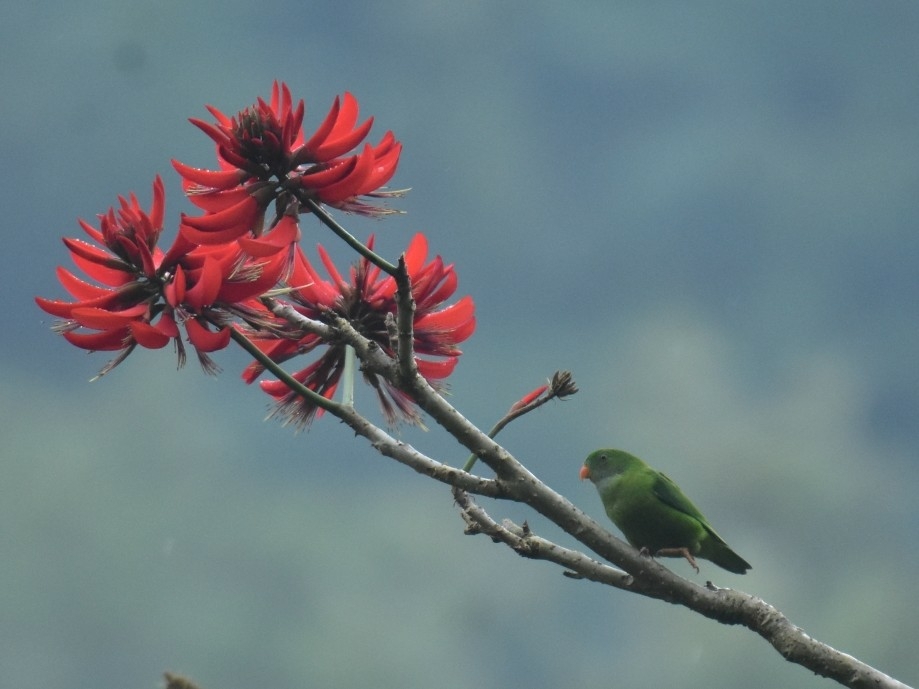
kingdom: Animalia
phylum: Chordata
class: Aves
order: Psittaciformes
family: Psittacidae
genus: Loriculus
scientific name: Loriculus vernalis
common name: Vernal hanging parrot
